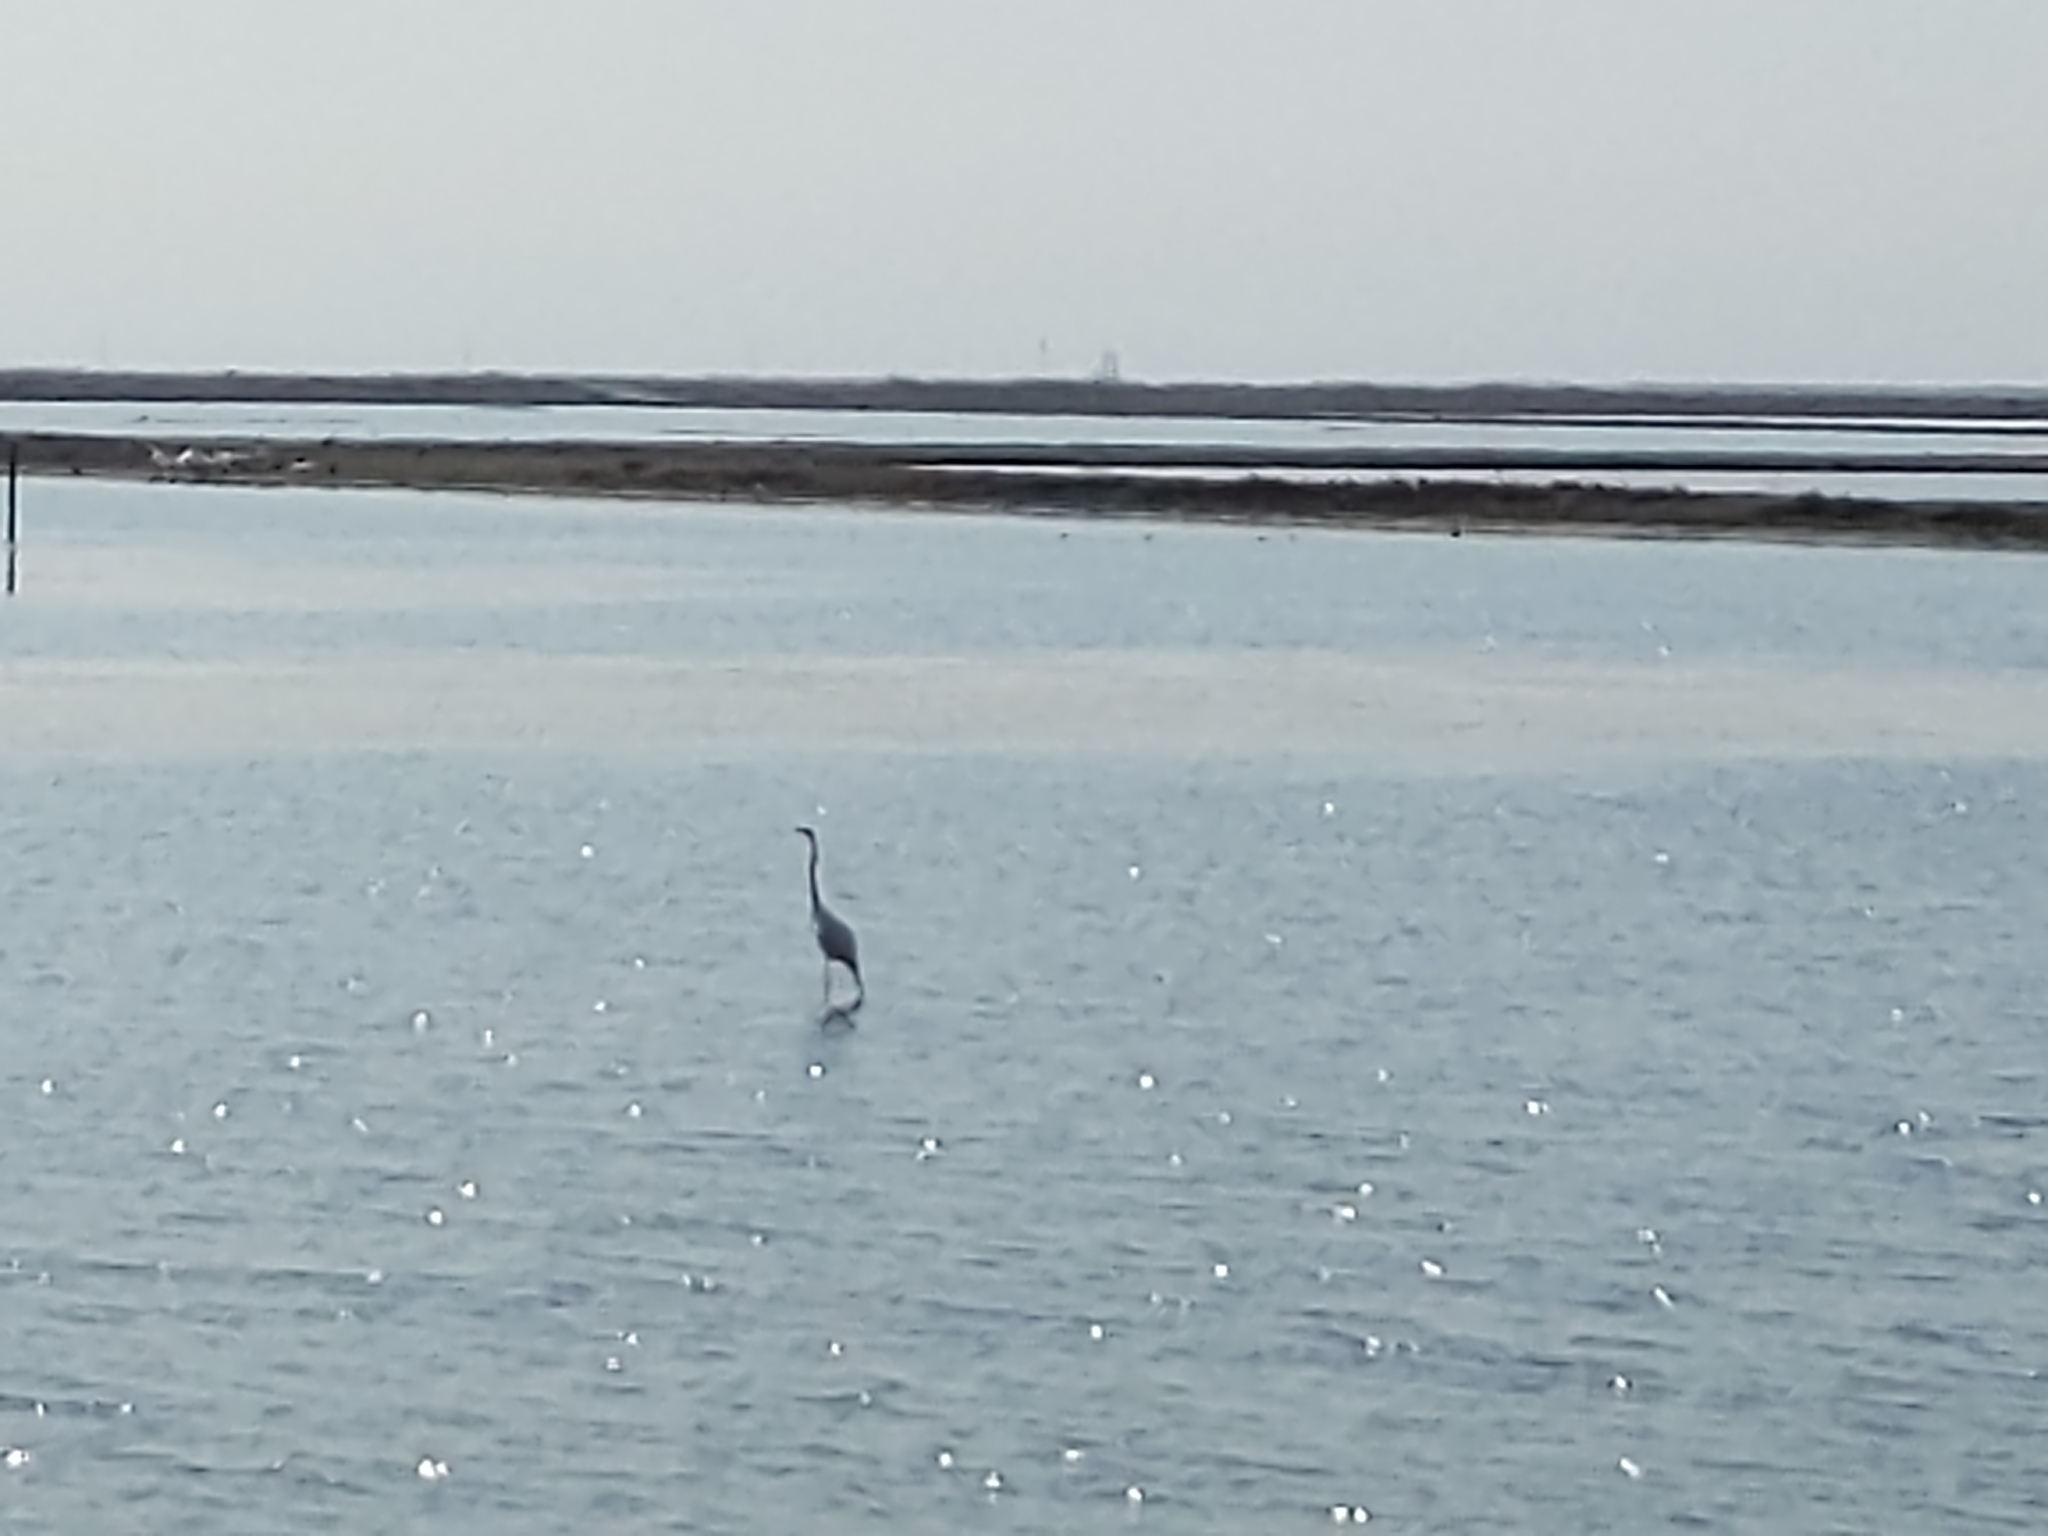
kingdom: Animalia
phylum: Chordata
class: Aves
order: Pelecaniformes
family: Ardeidae
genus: Ardea
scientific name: Ardea alba
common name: Great egret
